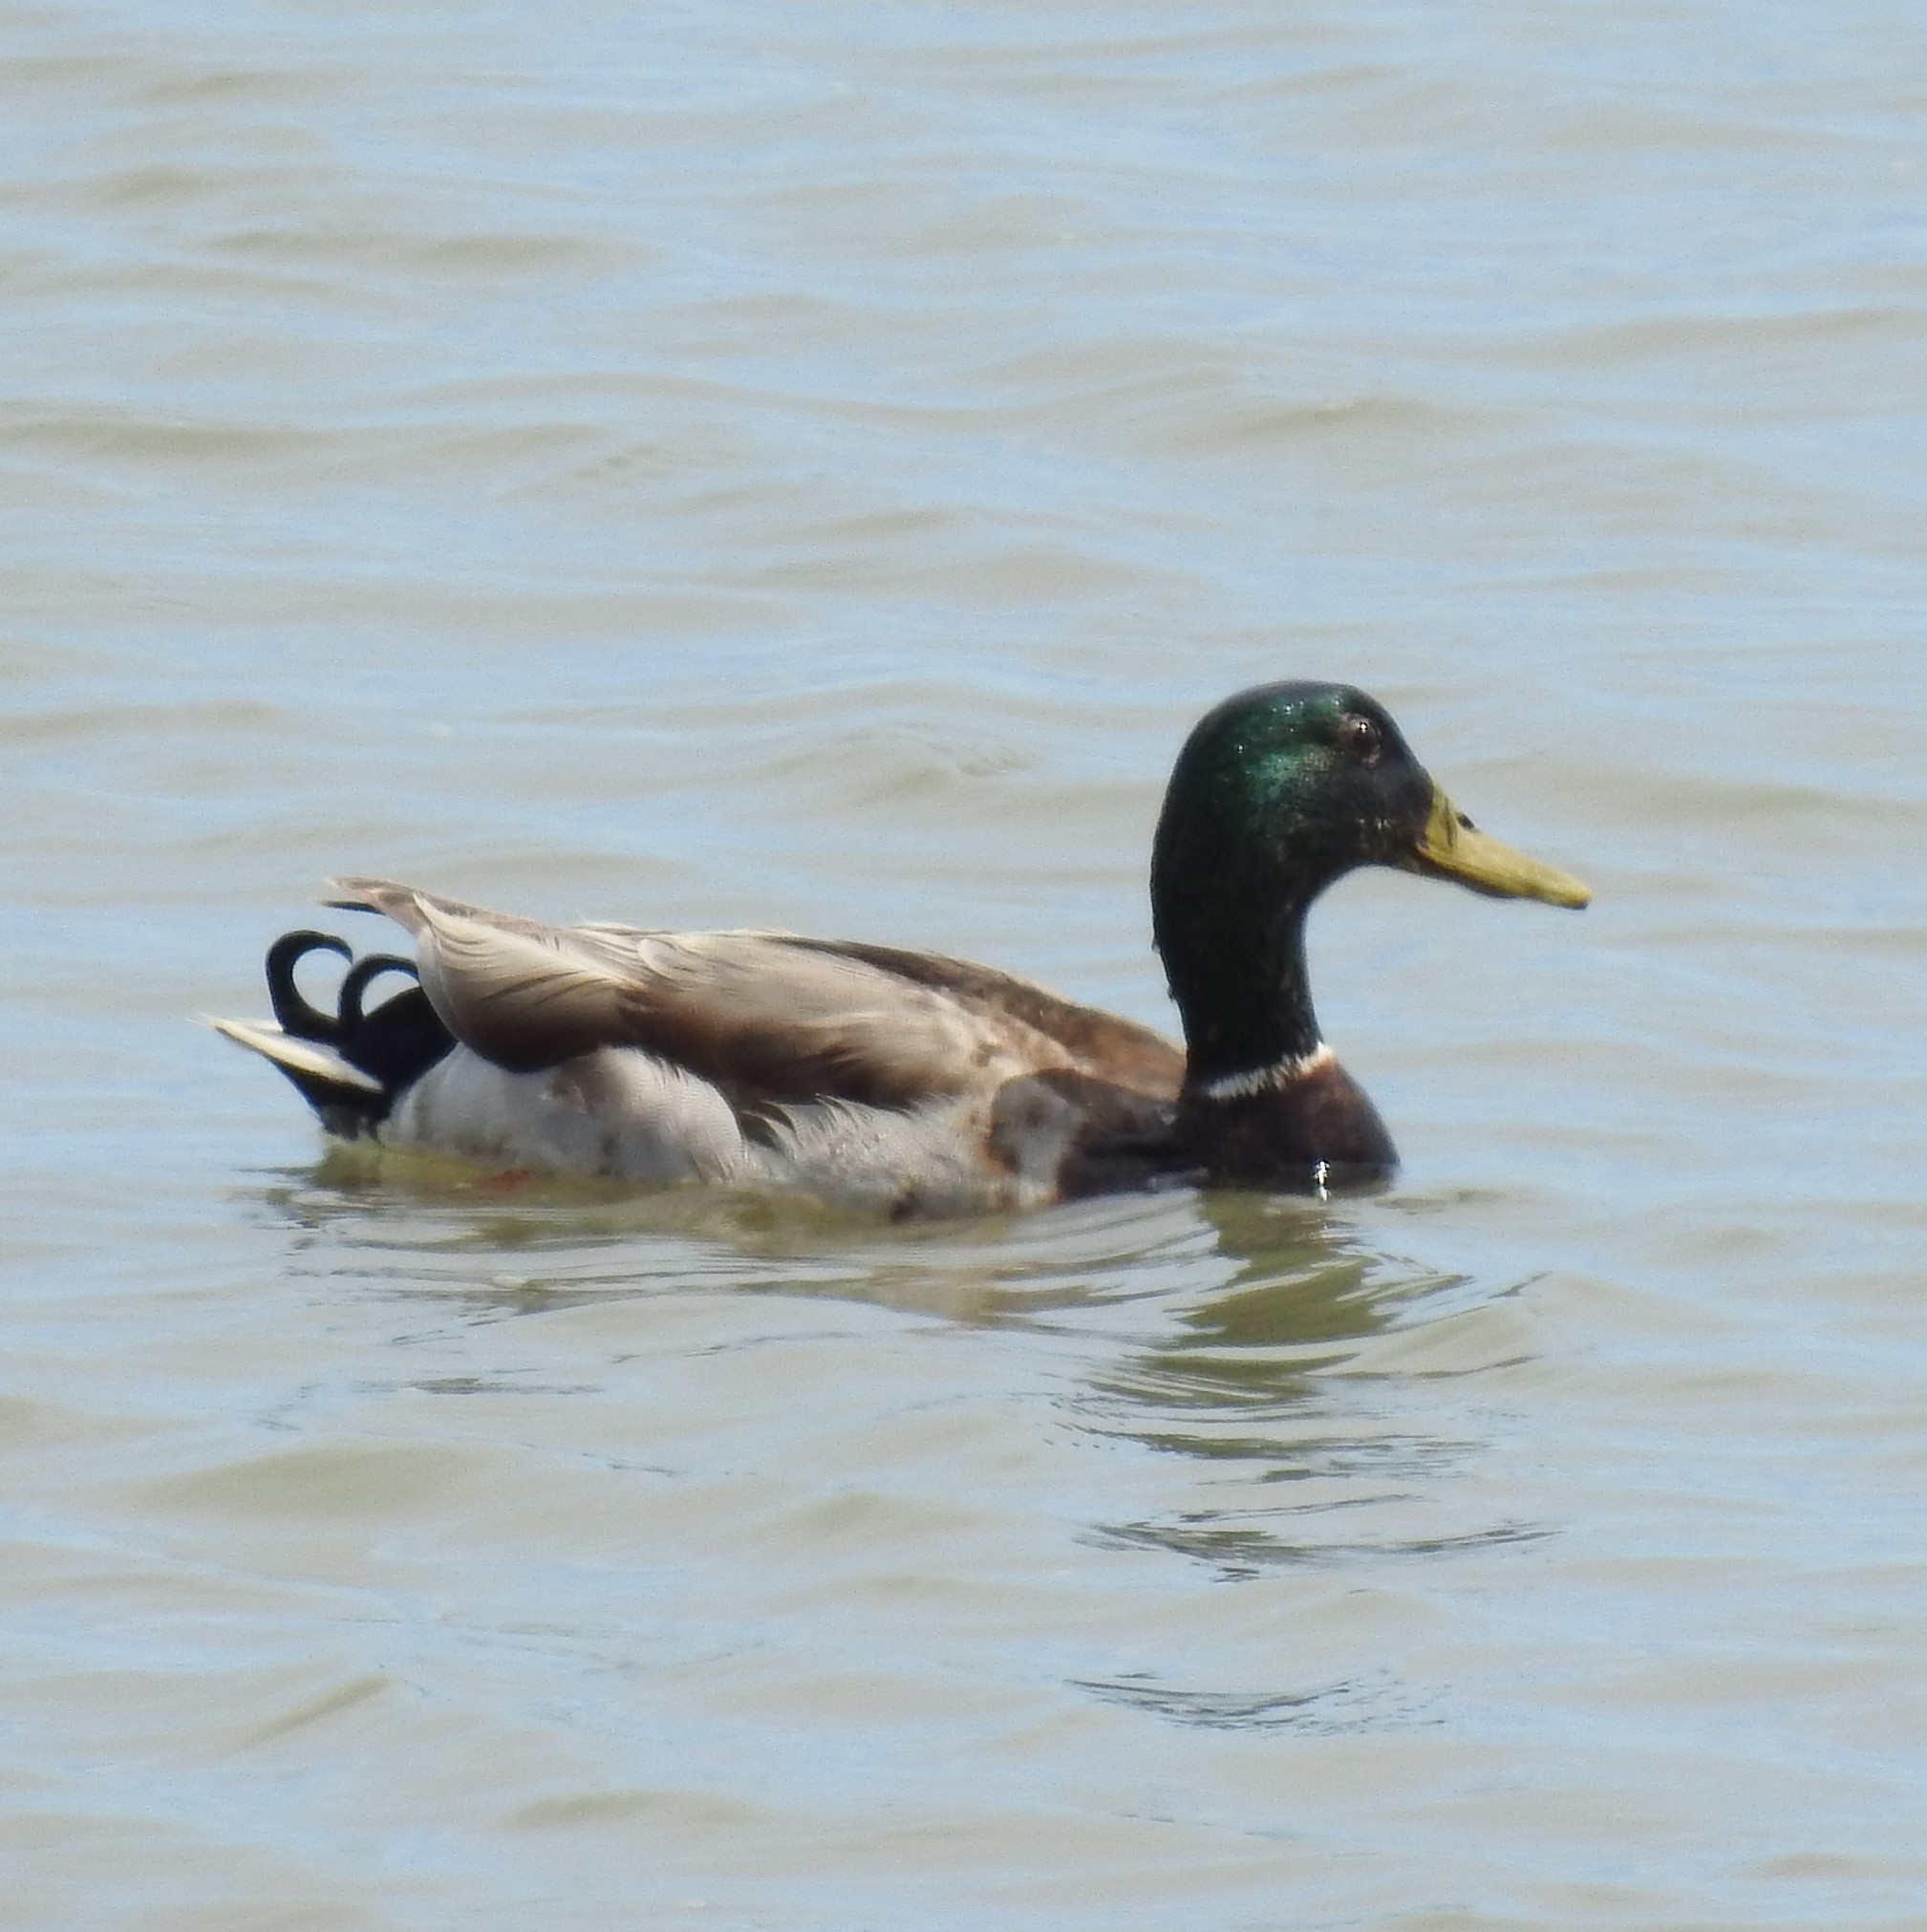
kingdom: Animalia
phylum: Chordata
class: Aves
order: Anseriformes
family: Anatidae
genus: Anas
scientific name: Anas platyrhynchos
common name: Mallard
